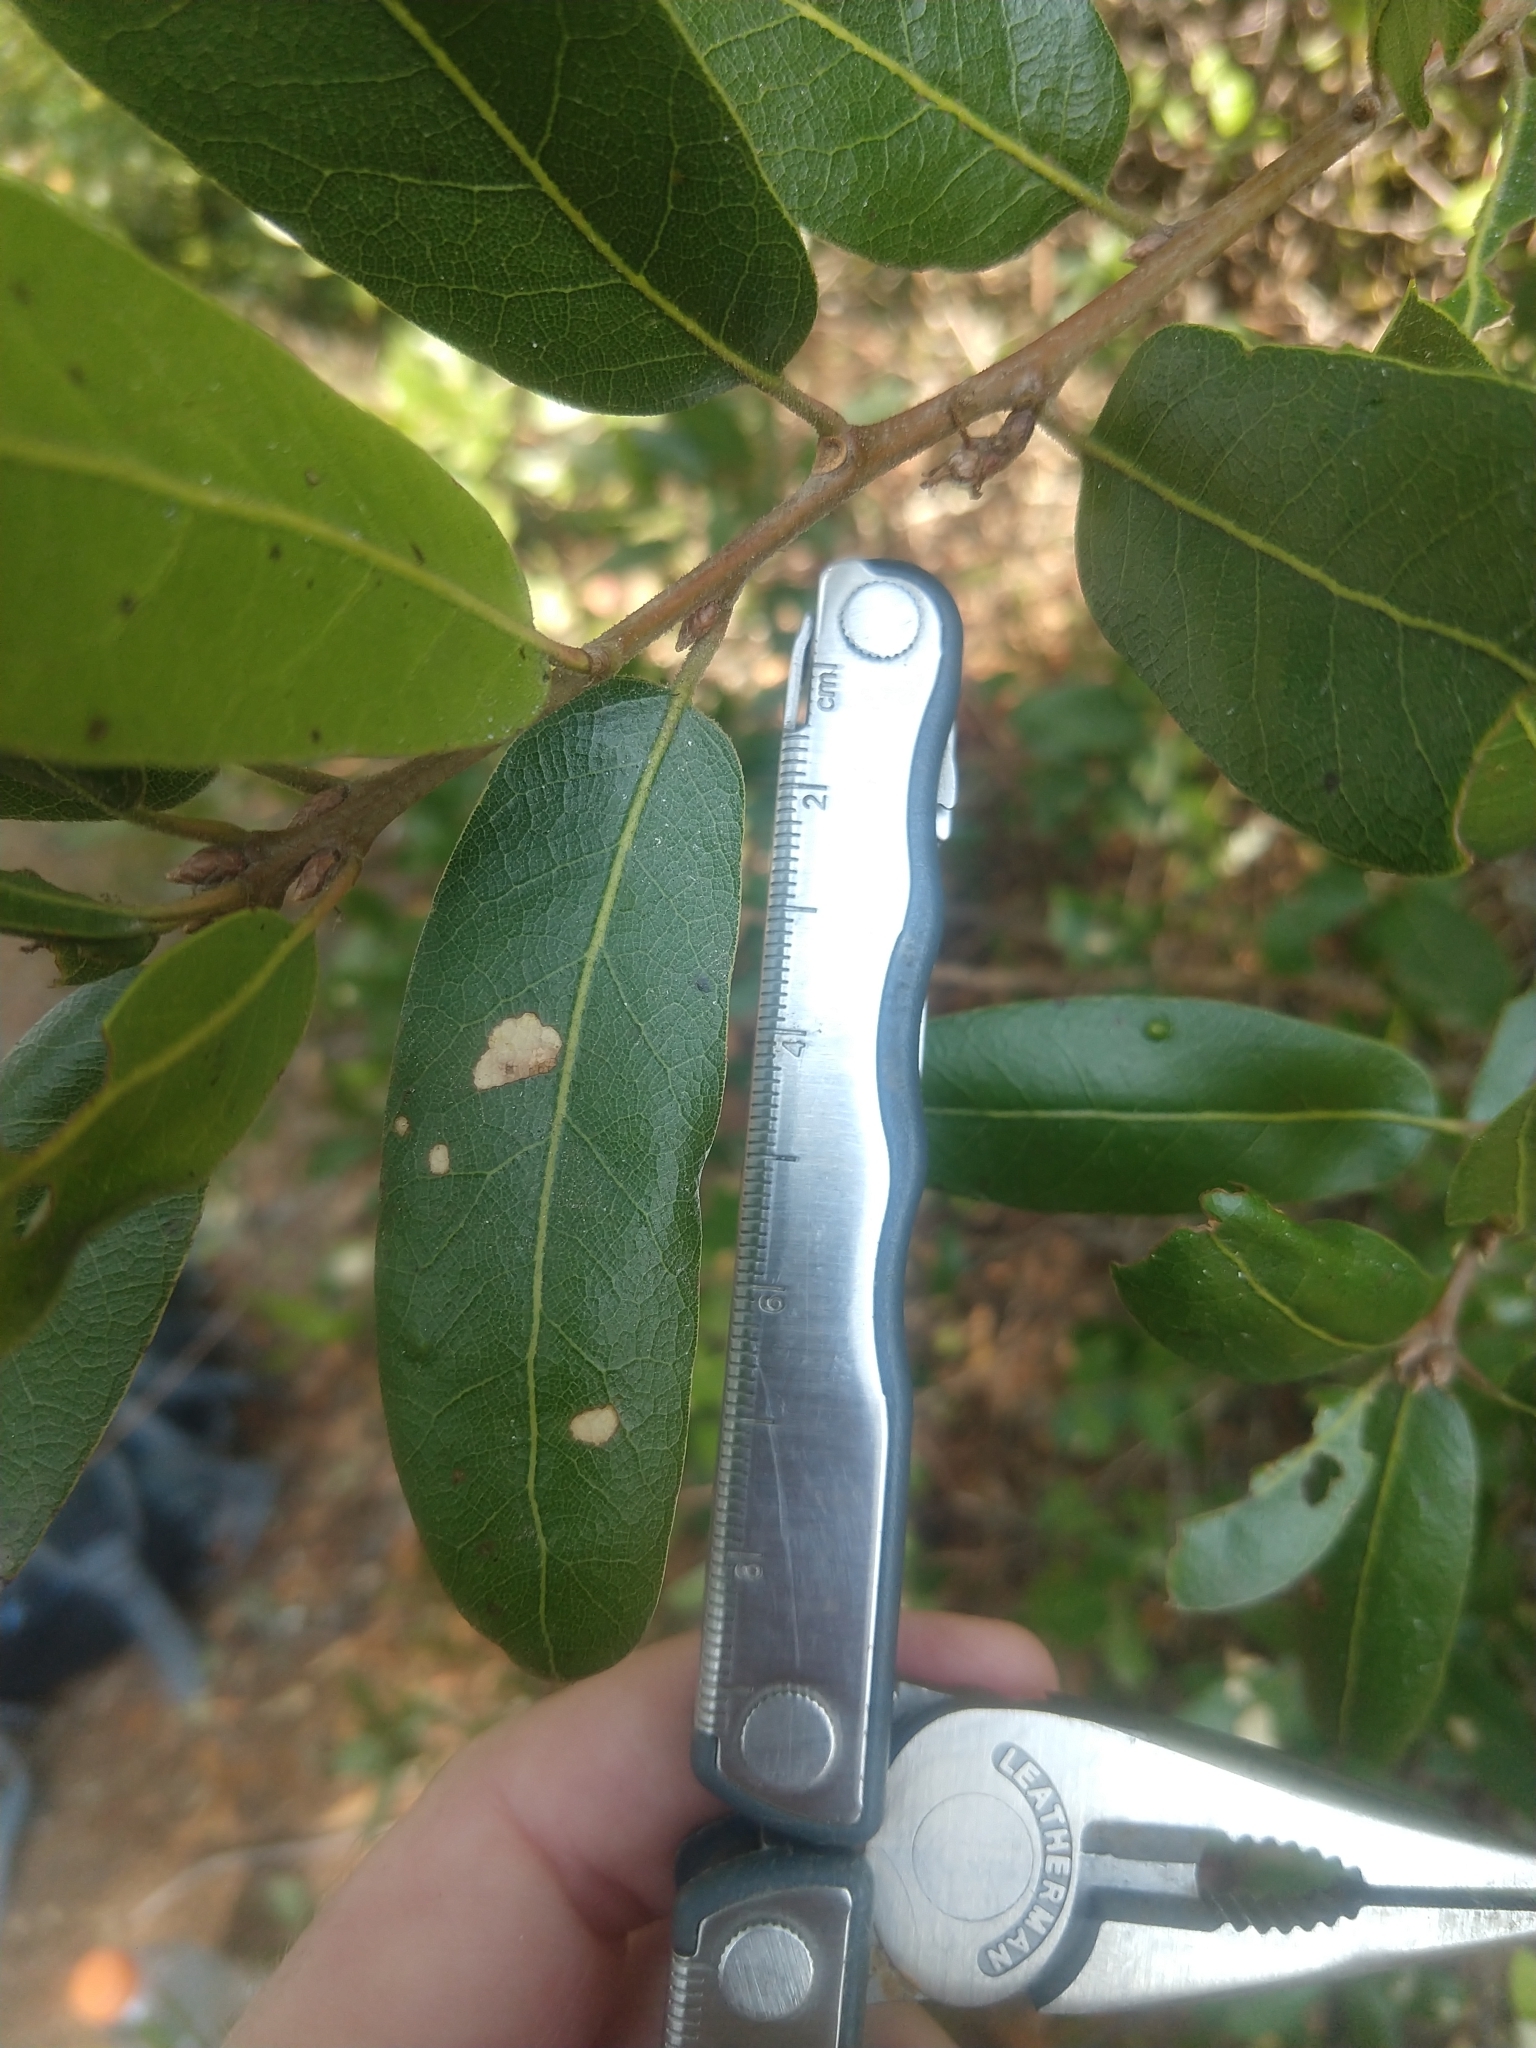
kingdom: Plantae
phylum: Tracheophyta
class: Magnoliopsida
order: Fagales
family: Fagaceae
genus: Quercus
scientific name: Quercus parvula
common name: Santa cruz island oak
